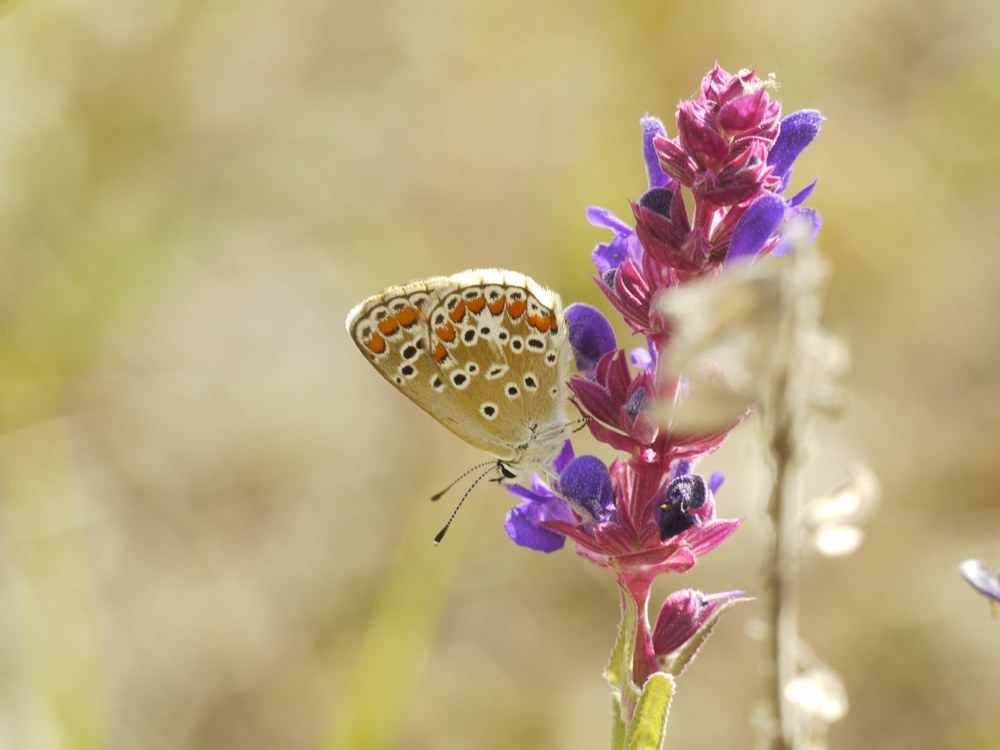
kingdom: Animalia
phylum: Arthropoda
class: Insecta
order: Lepidoptera
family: Lycaenidae
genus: Aricia
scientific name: Aricia agestis
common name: Brown argus
